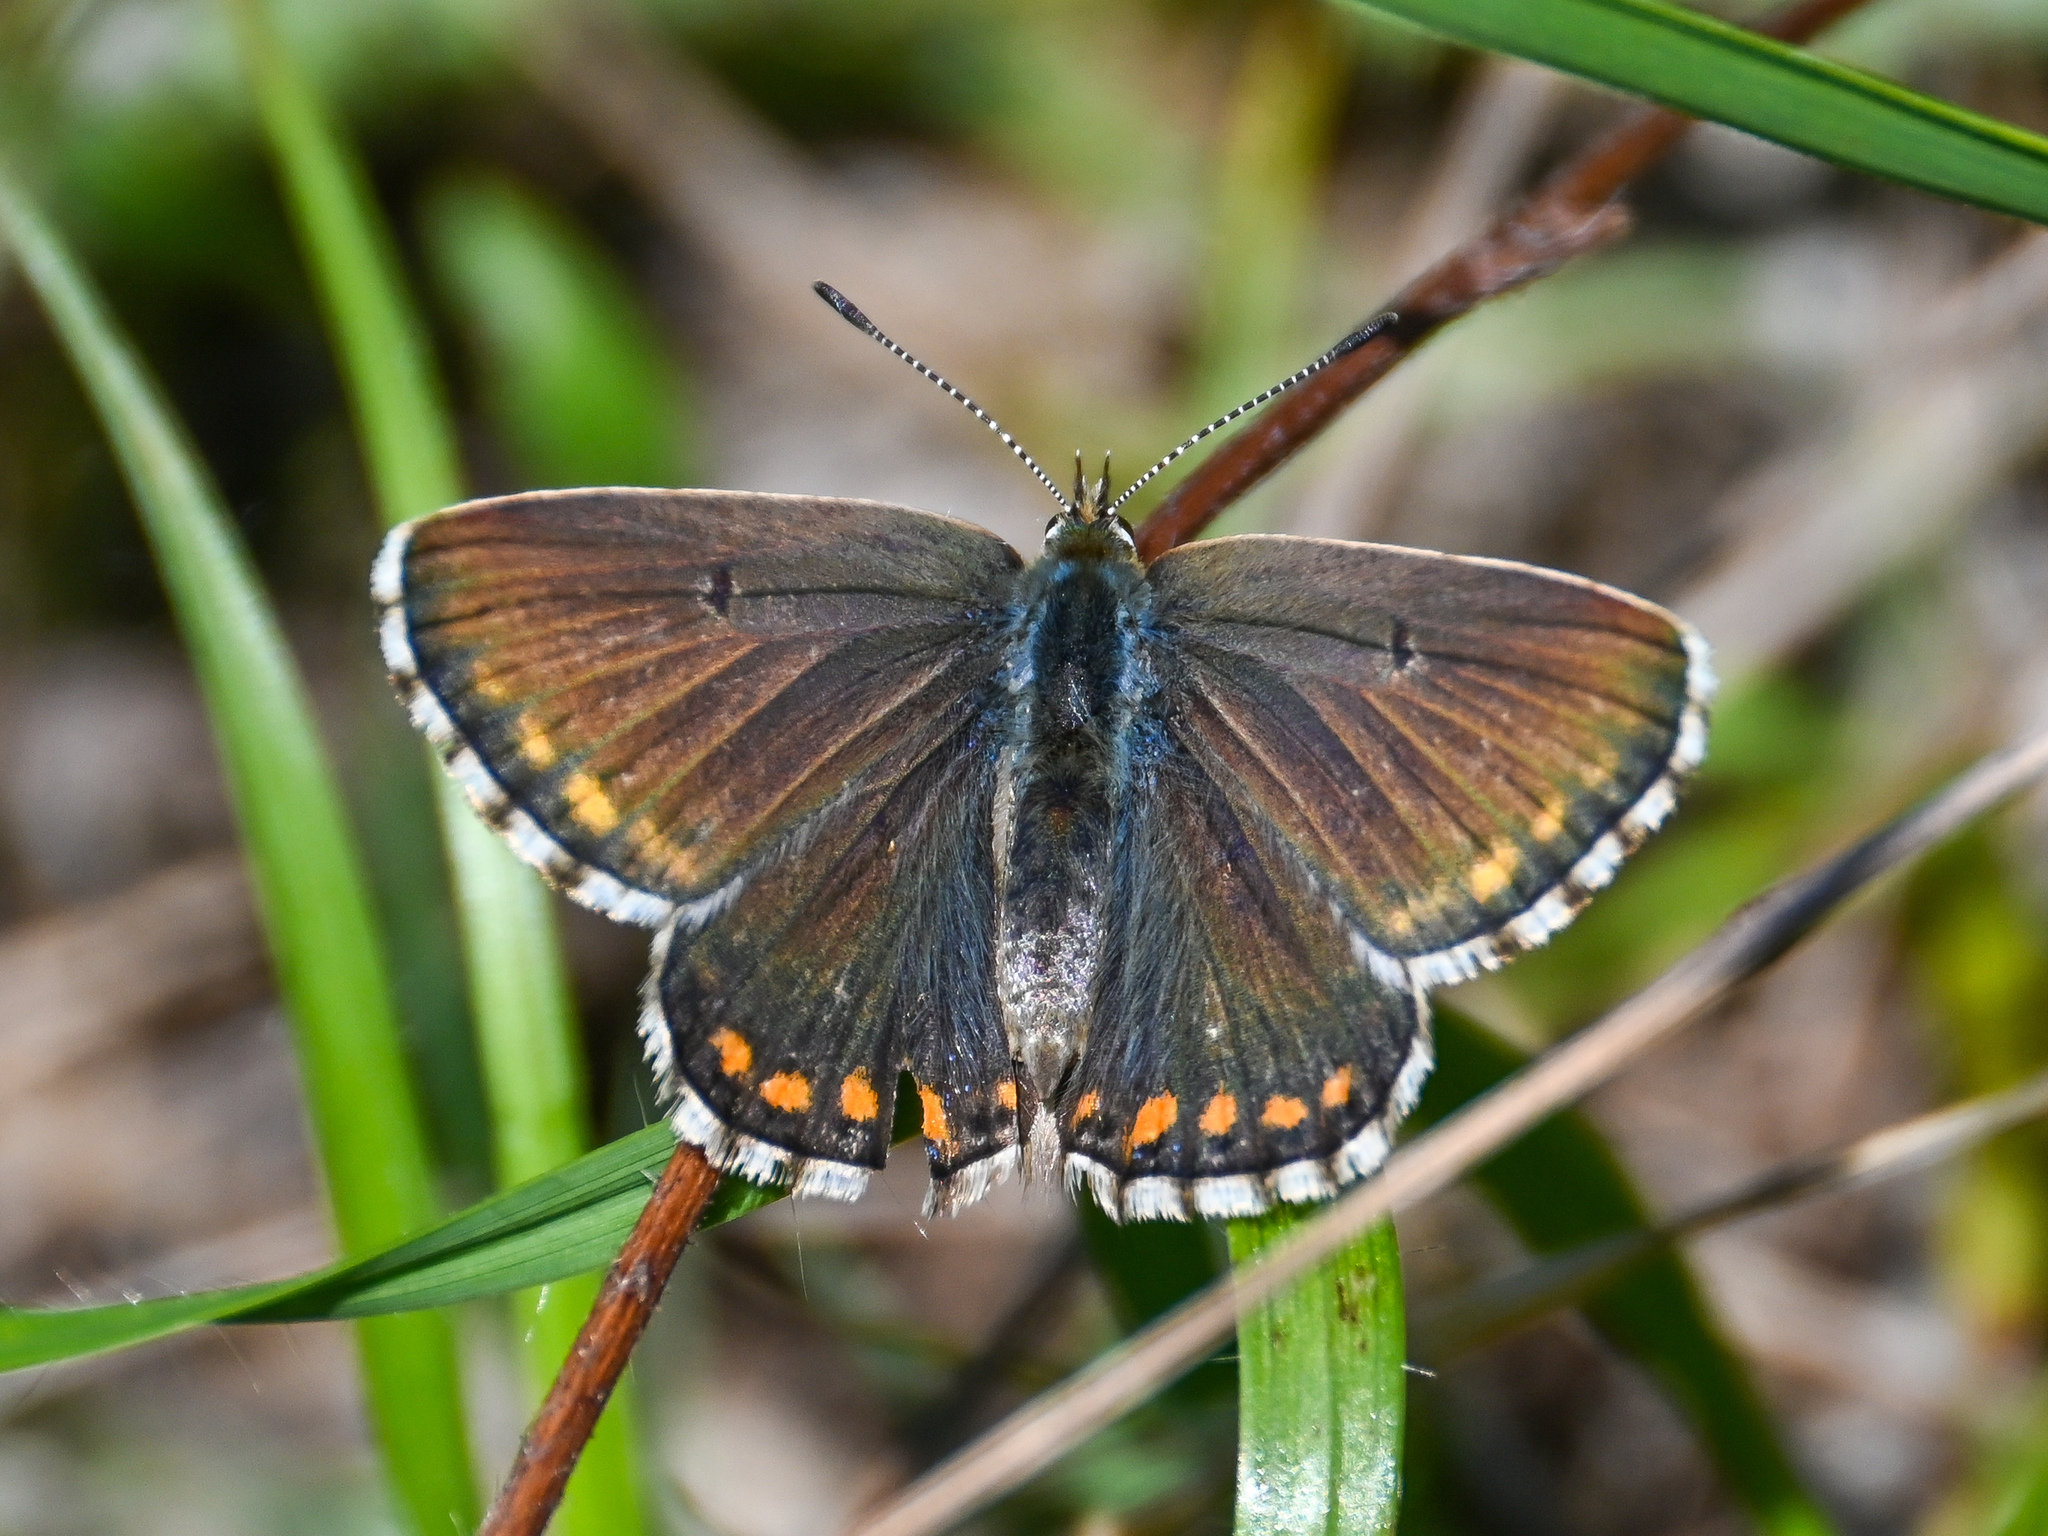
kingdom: Animalia
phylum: Arthropoda
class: Insecta
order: Lepidoptera
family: Lycaenidae
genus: Lysandra
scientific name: Lysandra bellargus
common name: Adonis blue
